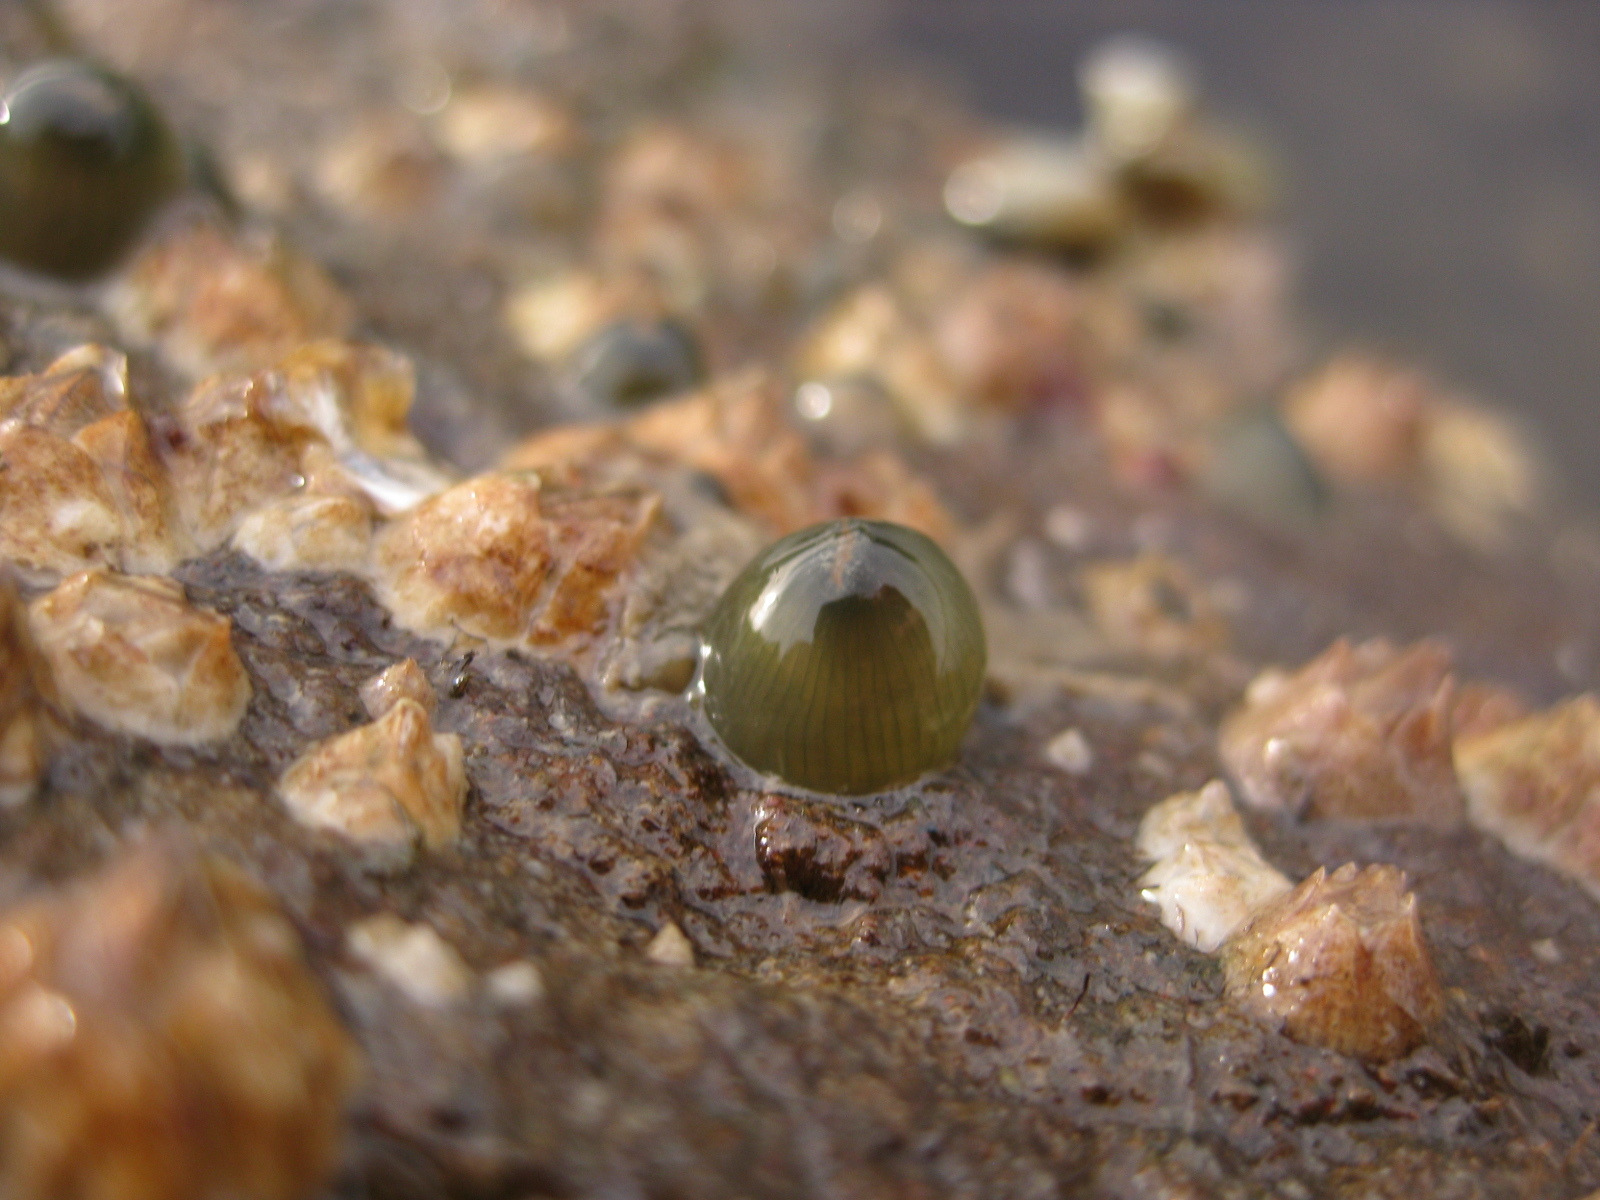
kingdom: Animalia
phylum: Cnidaria
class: Anthozoa
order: Actiniaria
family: Actiniidae
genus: Isactinia
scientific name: Isactinia olivacea
